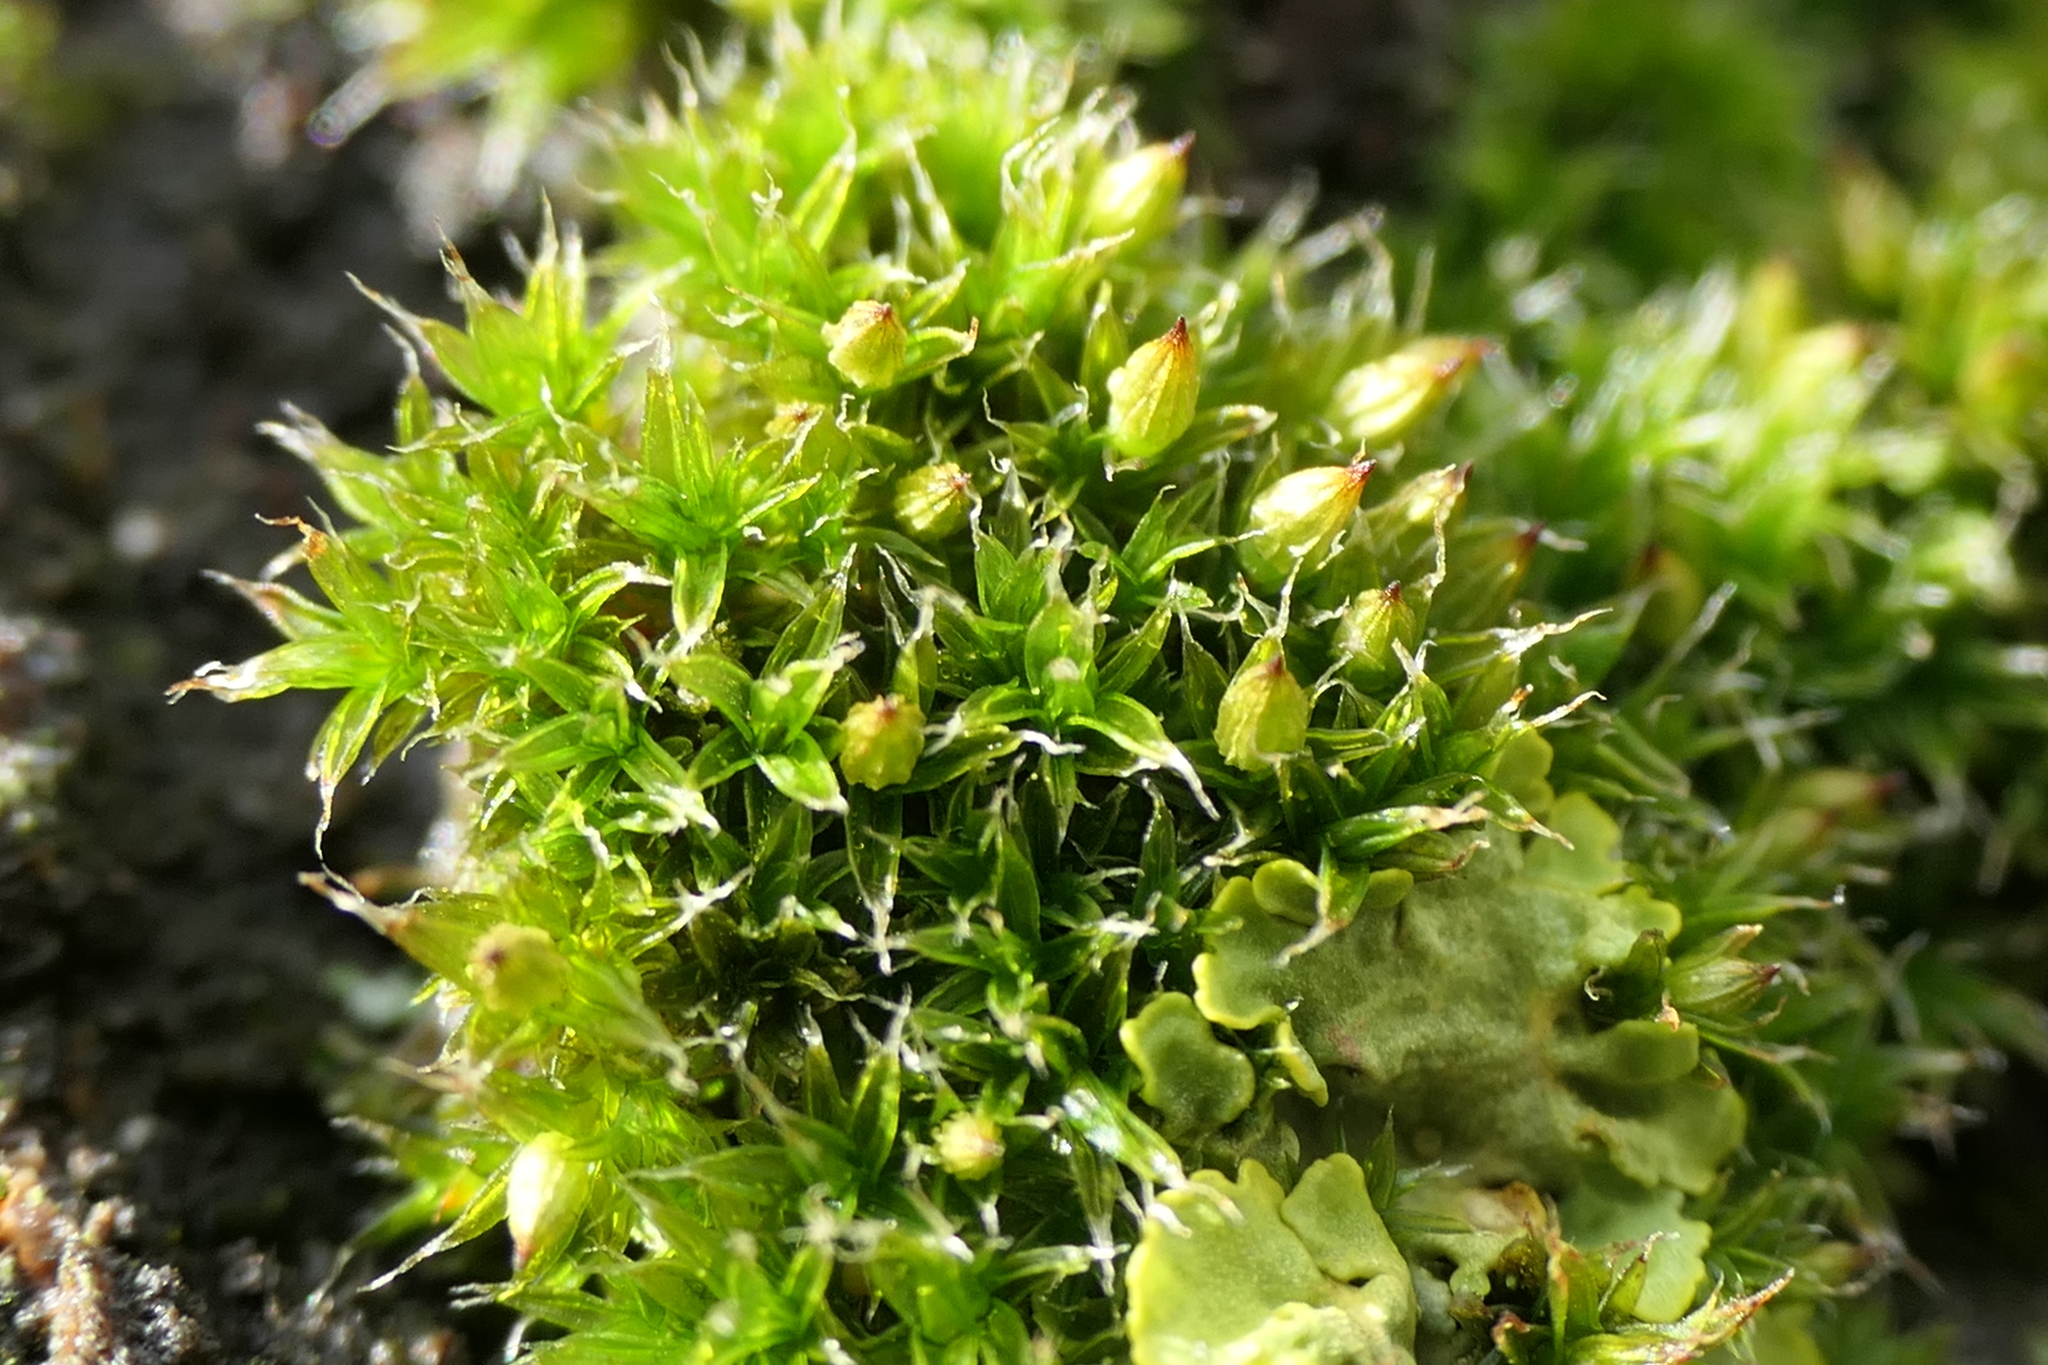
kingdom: Plantae
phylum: Bryophyta
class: Bryopsida
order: Orthotrichales
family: Orthotrichaceae
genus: Orthotrichum
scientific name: Orthotrichum diaphanum
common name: White-tipped bristle-moss
